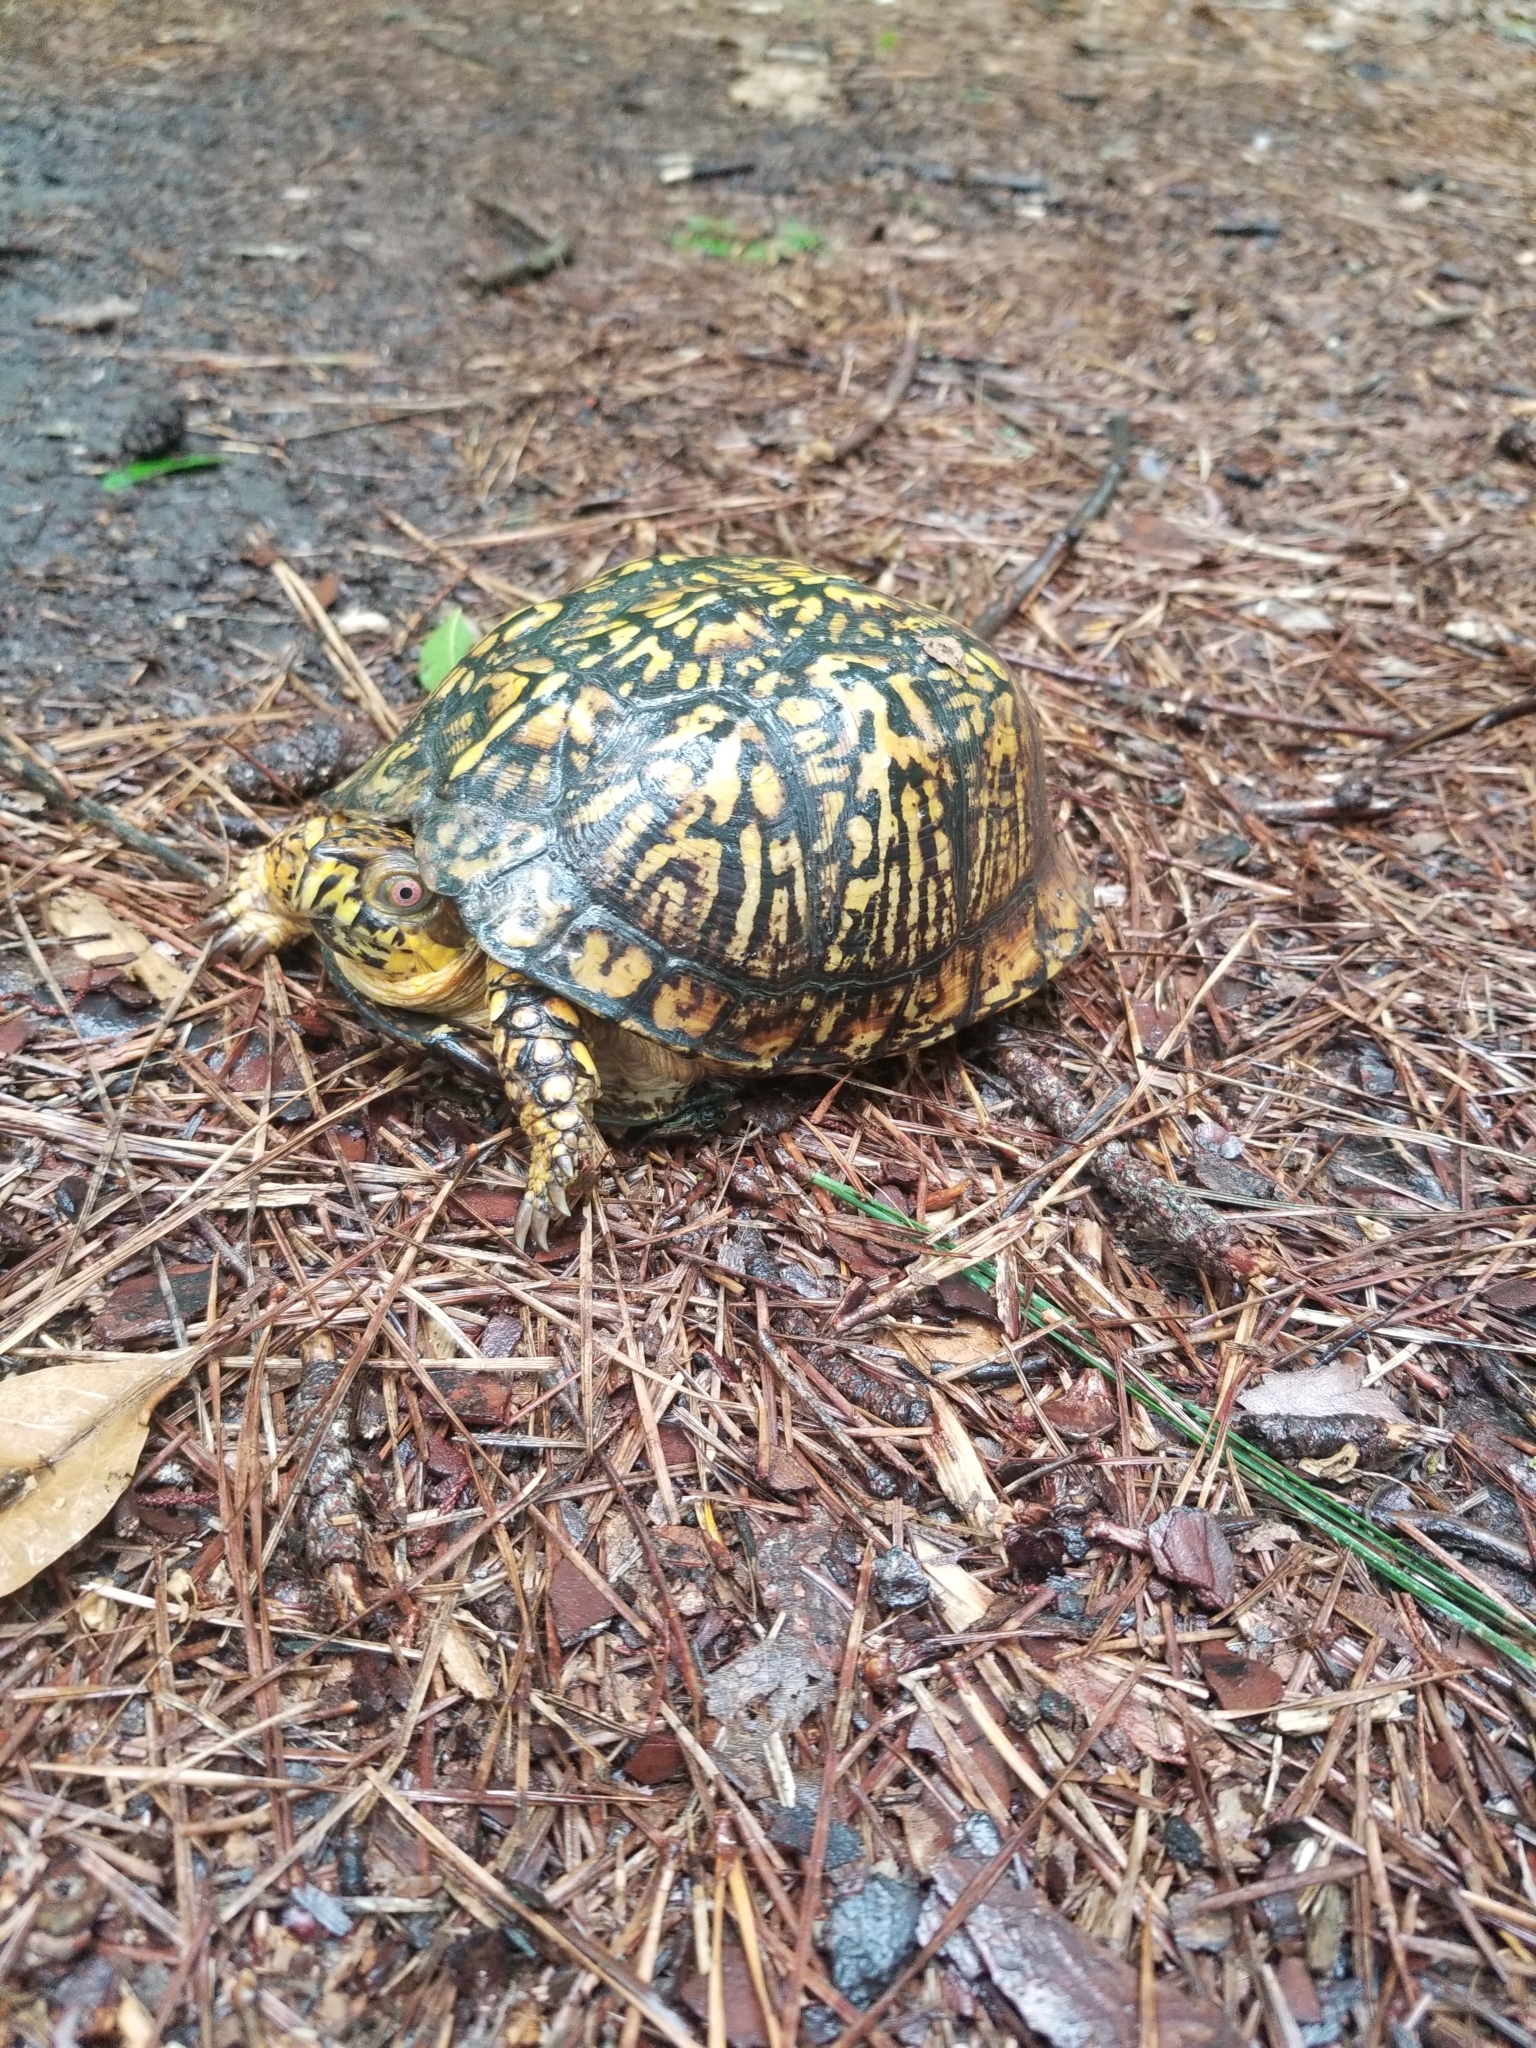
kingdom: Animalia
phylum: Chordata
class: Testudines
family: Emydidae
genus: Terrapene
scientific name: Terrapene carolina
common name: Common box turtle
